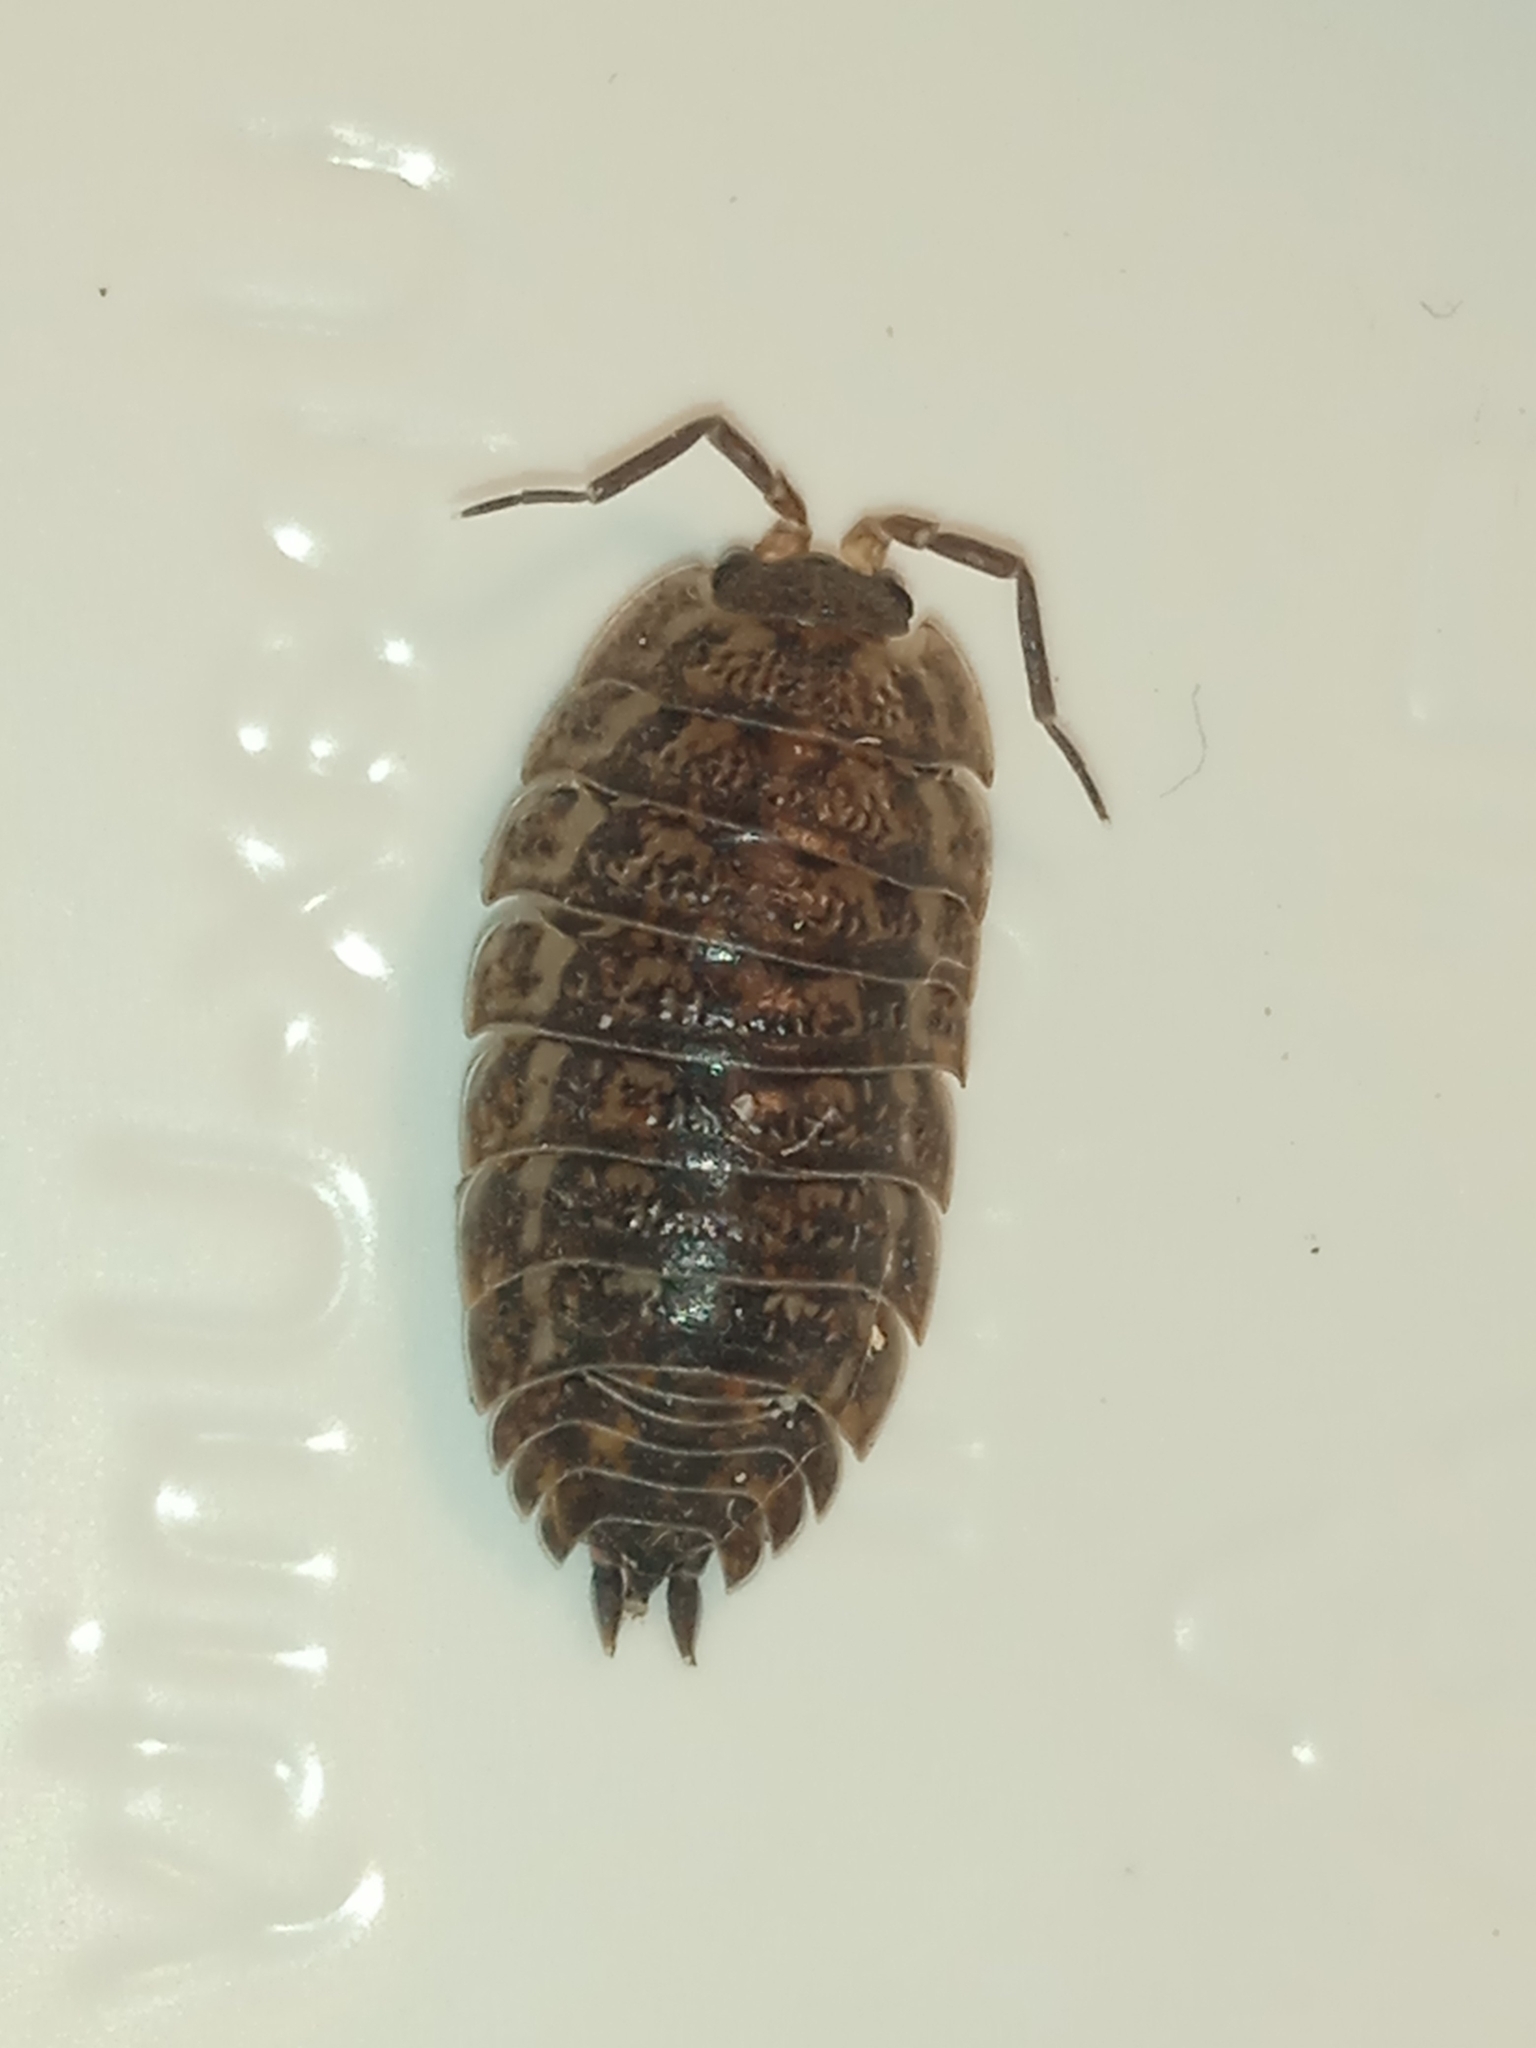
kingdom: Animalia
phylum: Arthropoda
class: Malacostraca
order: Isopoda
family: Trachelipodidae
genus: Trachelipus
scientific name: Trachelipus rathkii
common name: Isopod
